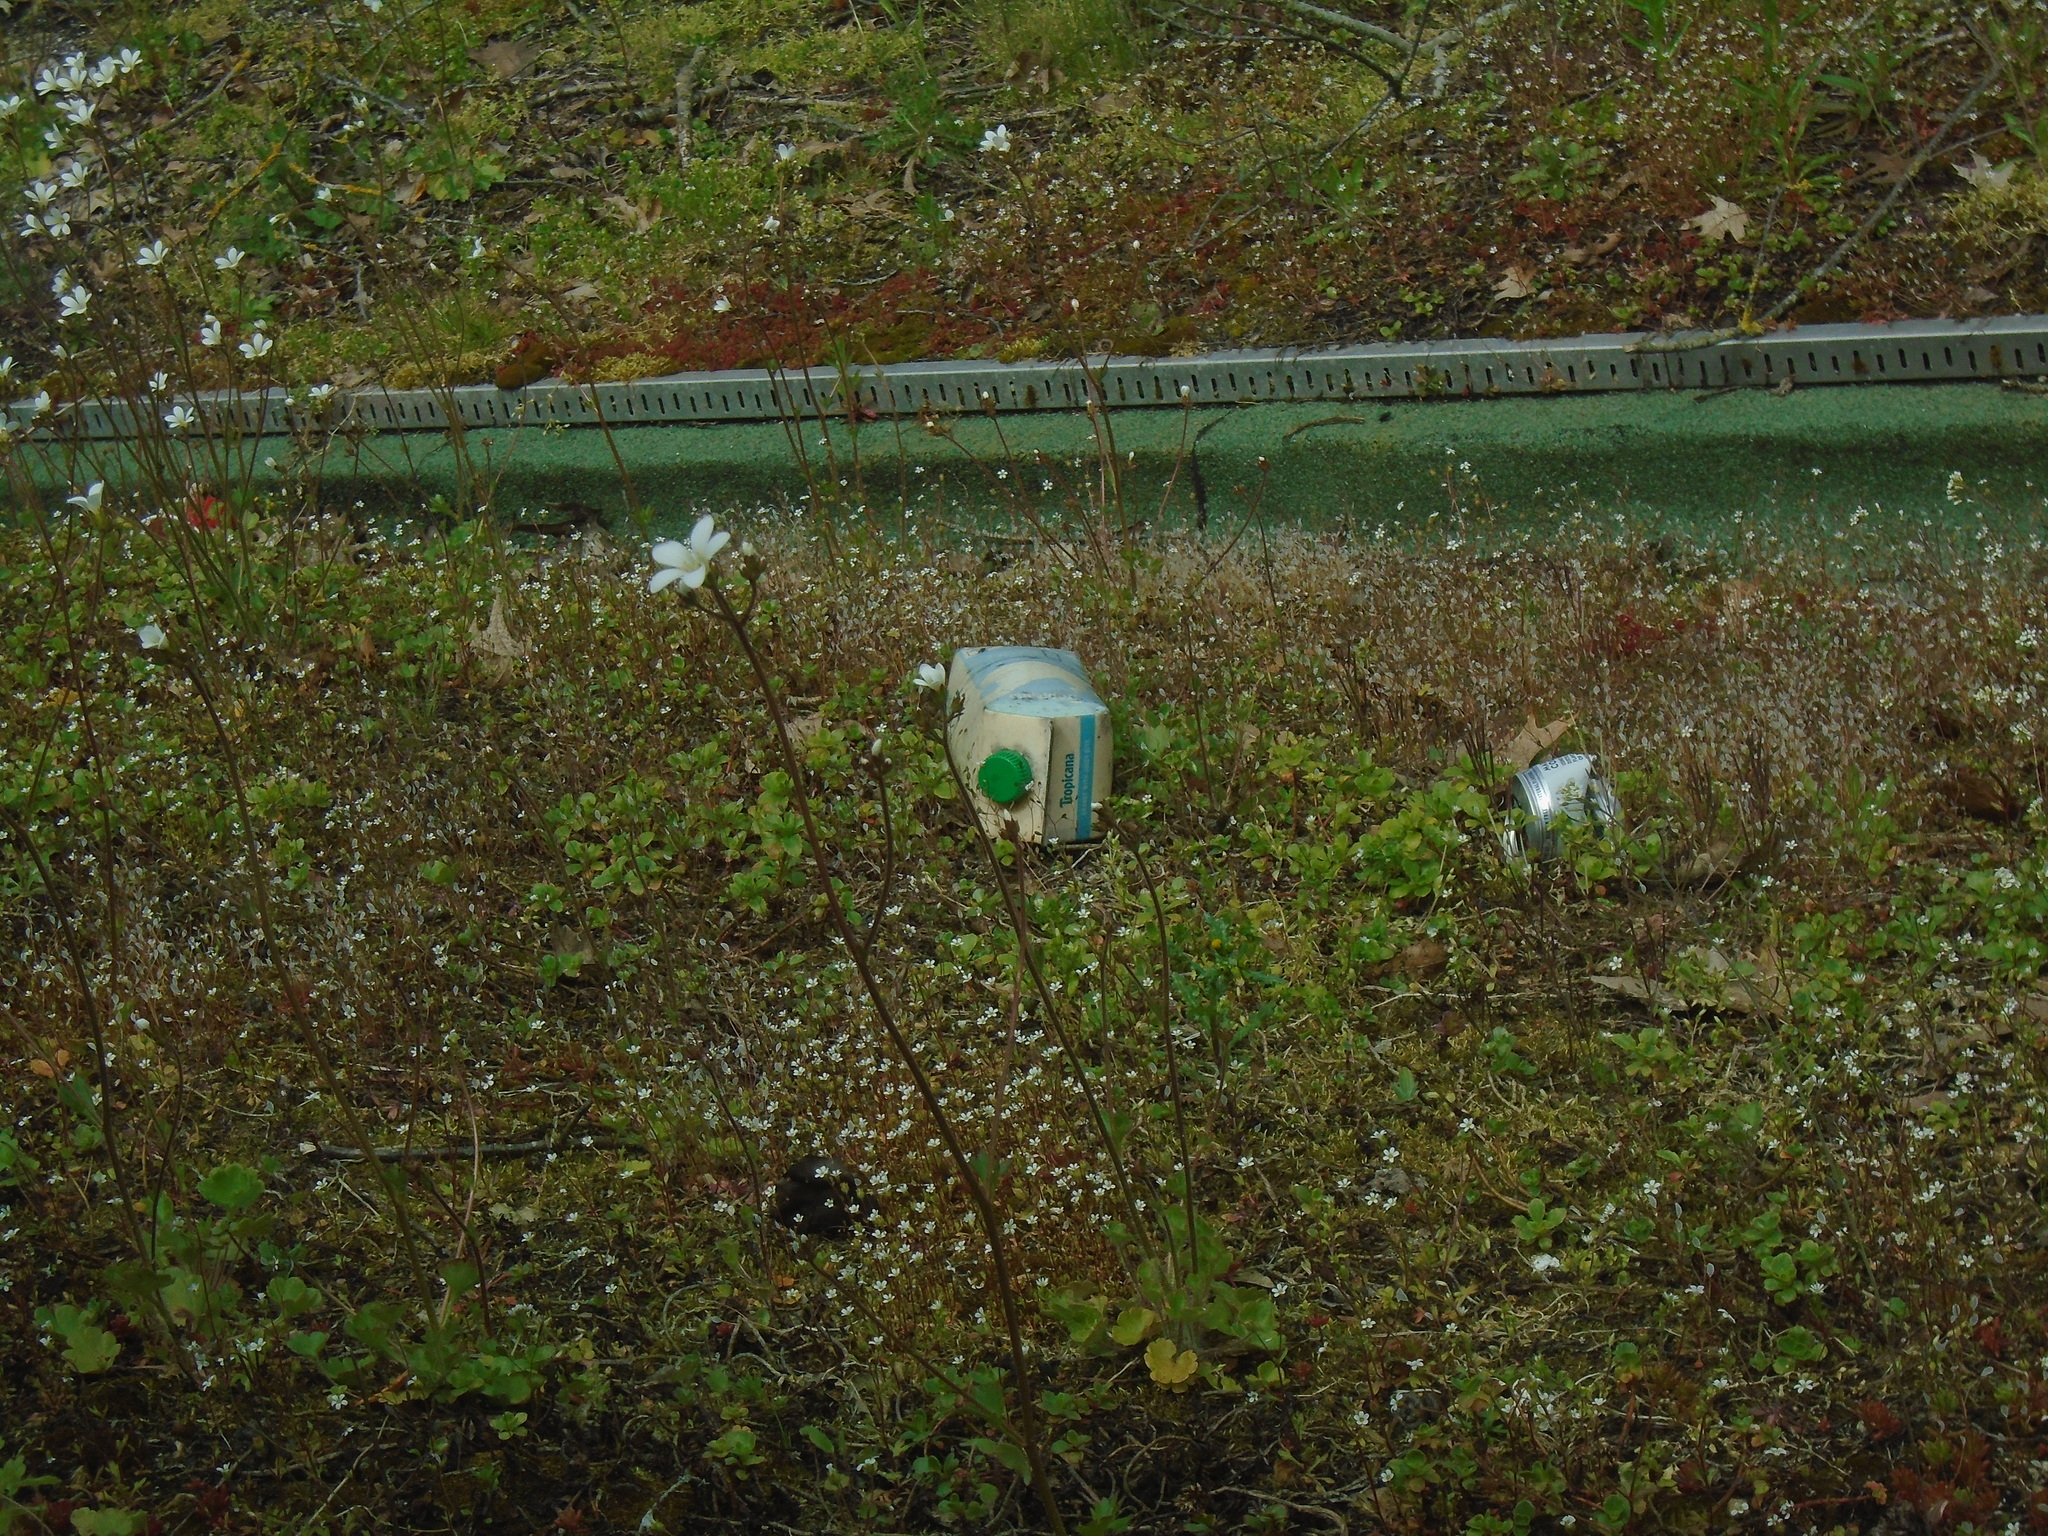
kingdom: Plantae
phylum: Tracheophyta
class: Magnoliopsida
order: Saxifragales
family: Saxifragaceae
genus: Saxifraga
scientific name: Saxifraga granulata
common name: Meadow saxifrage
